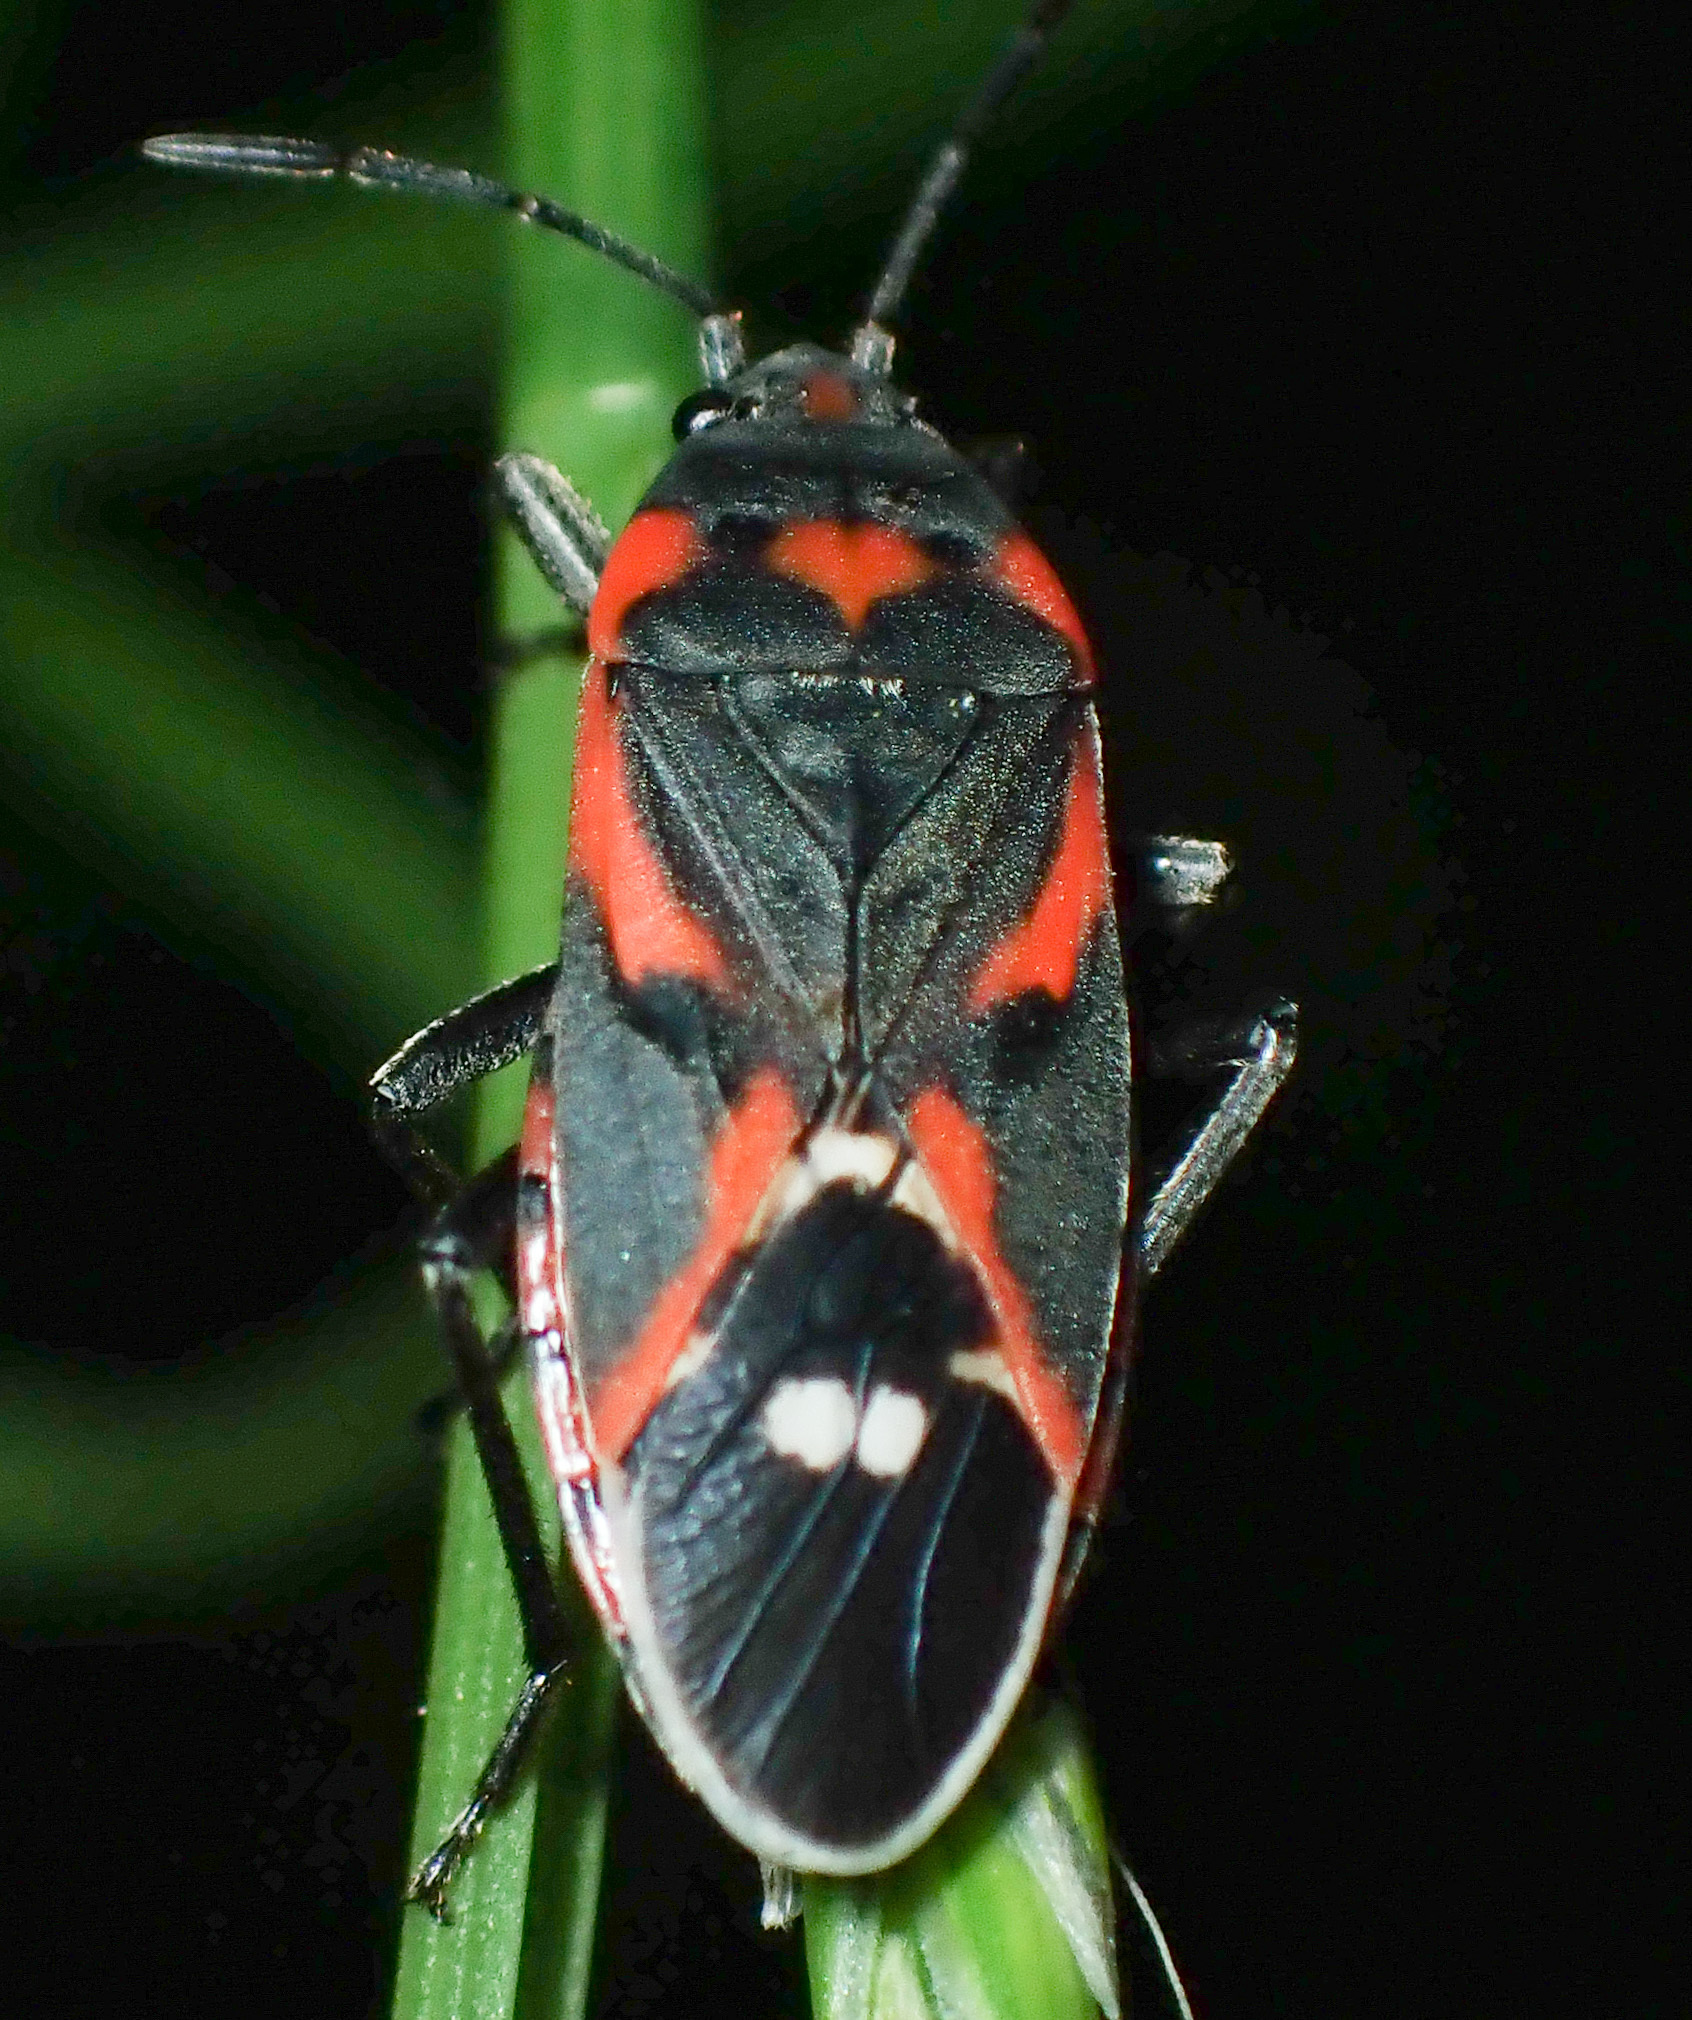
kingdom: Animalia
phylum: Arthropoda
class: Insecta
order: Hemiptera
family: Lygaeidae
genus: Lygaeus
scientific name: Lygaeus kalmii
